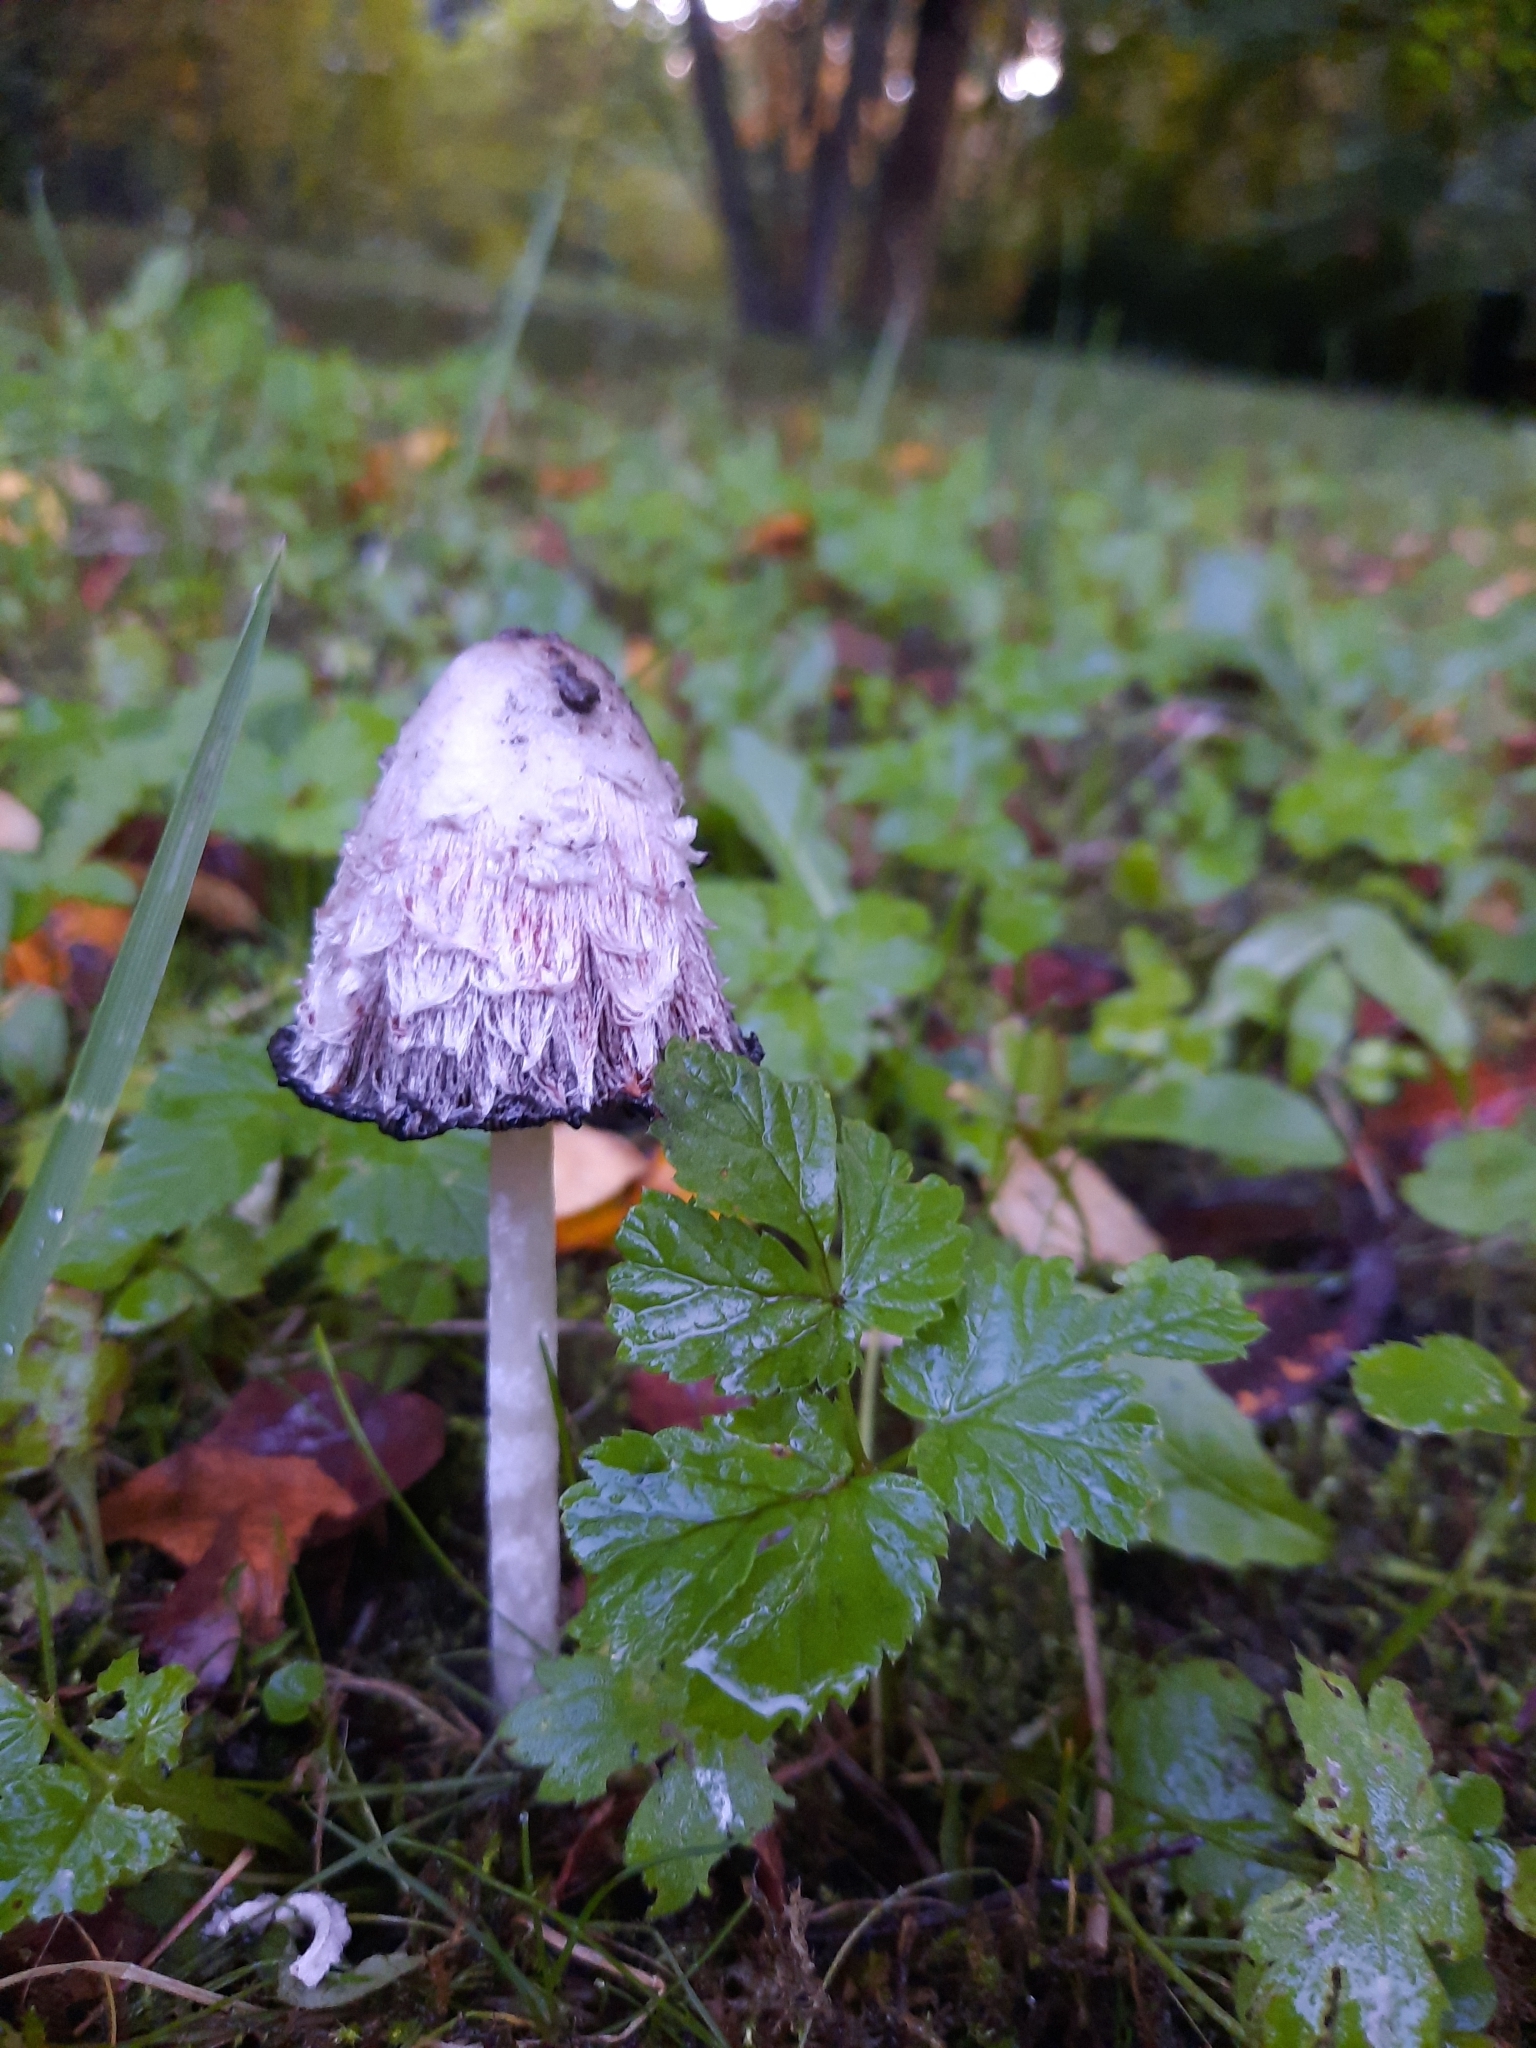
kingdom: Fungi
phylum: Basidiomycota
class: Agaricomycetes
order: Agaricales
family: Agaricaceae
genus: Coprinus
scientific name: Coprinus comatus
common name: Lawyer's wig
